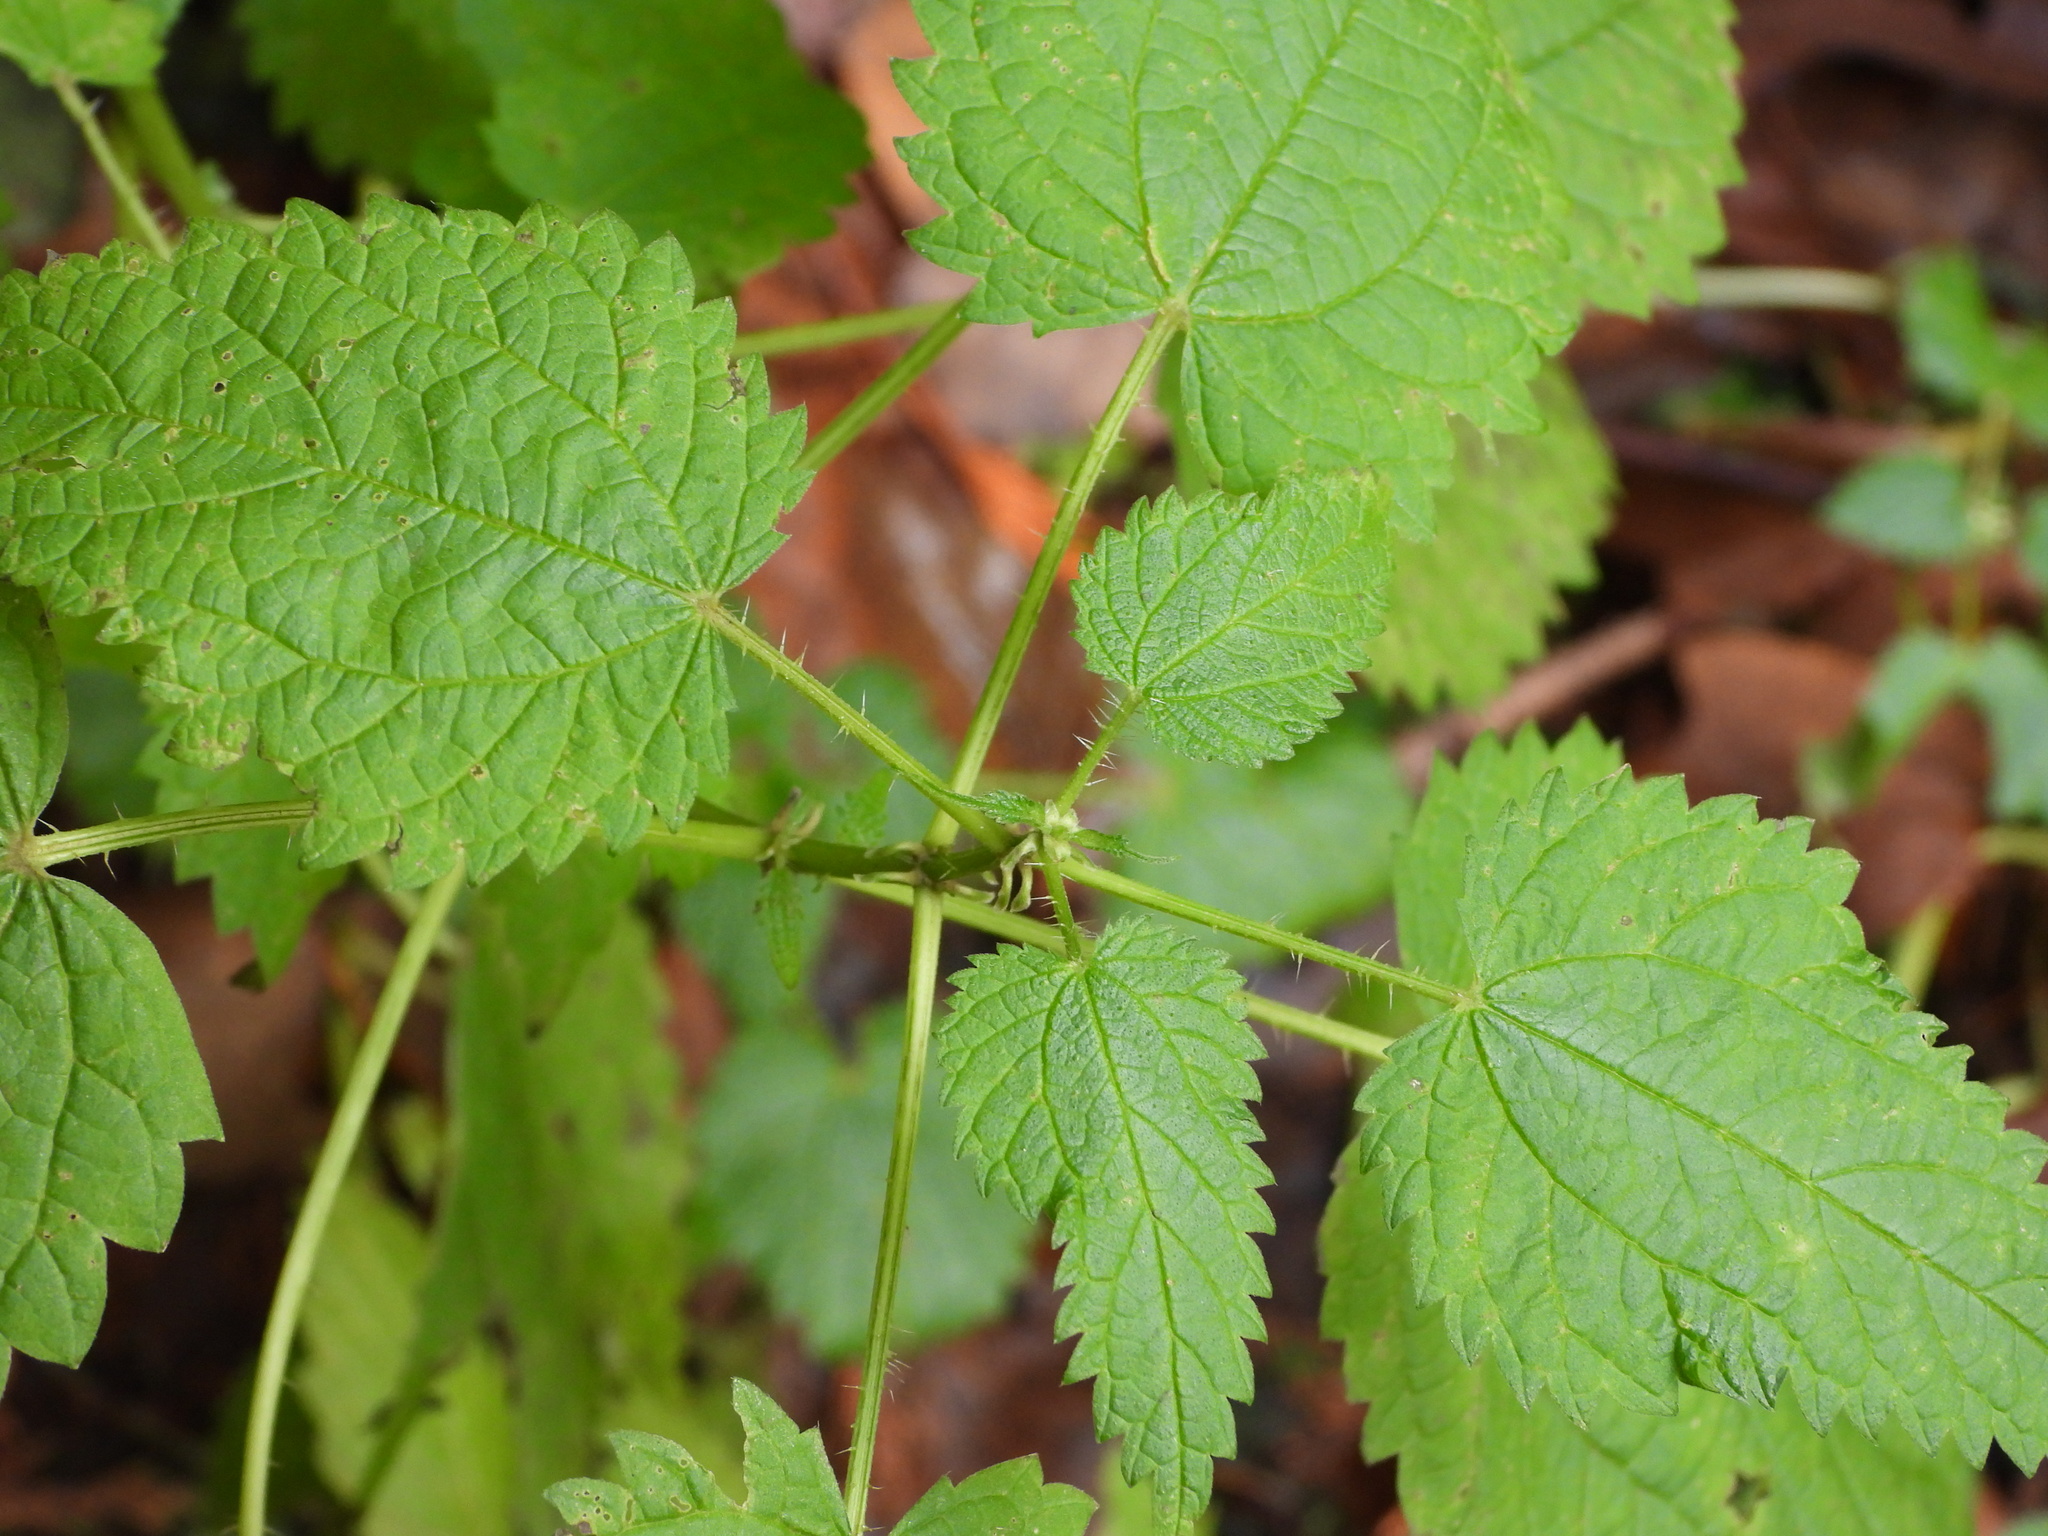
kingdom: Plantae
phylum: Tracheophyta
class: Magnoliopsida
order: Rosales
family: Urticaceae
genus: Urtica
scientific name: Urtica dioica
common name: Common nettle
